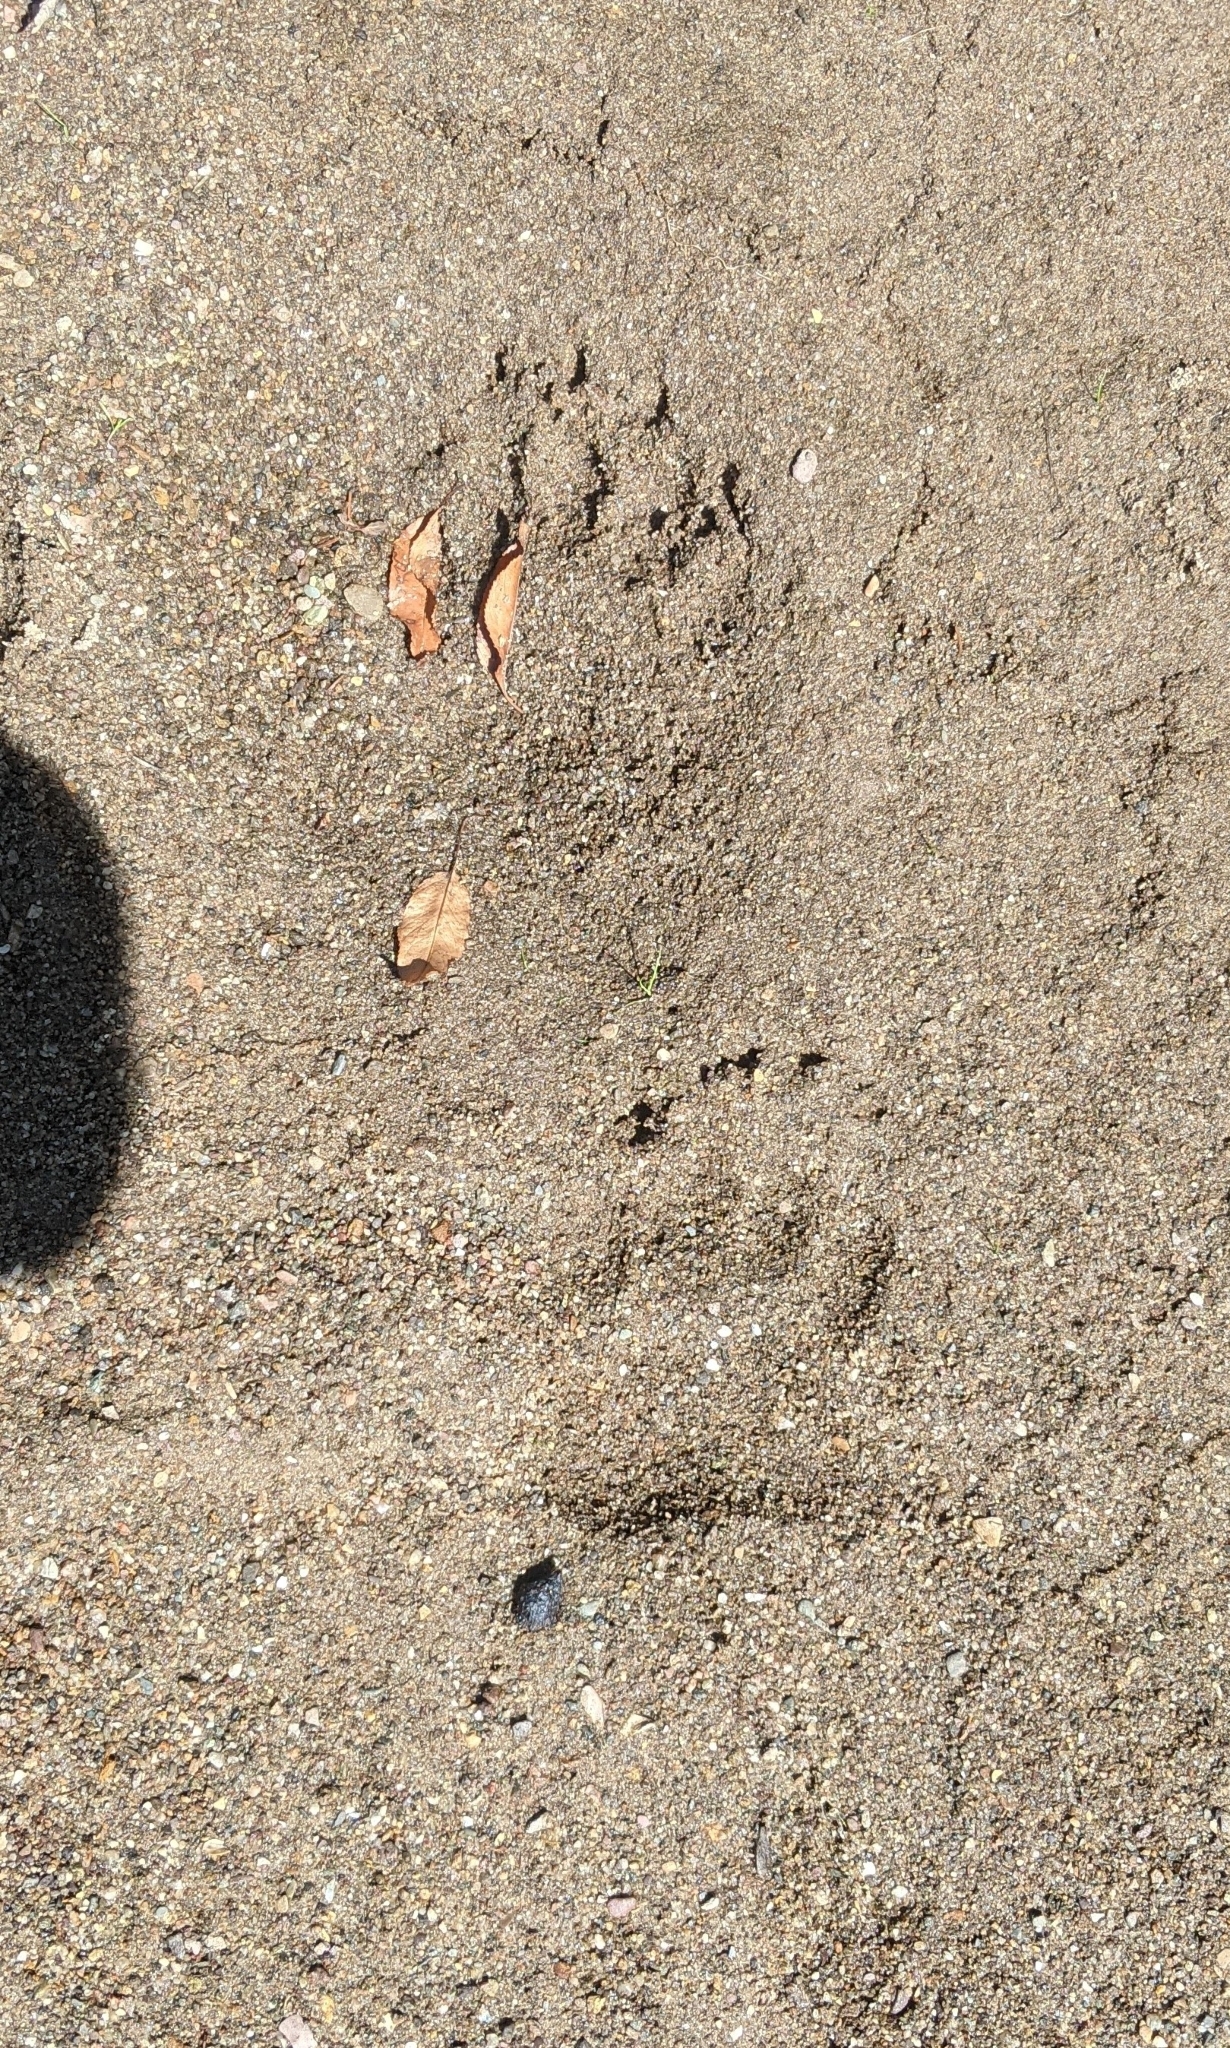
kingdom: Animalia
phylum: Chordata
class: Mammalia
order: Carnivora
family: Ursidae
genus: Ursus
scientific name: Ursus americanus
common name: American black bear
